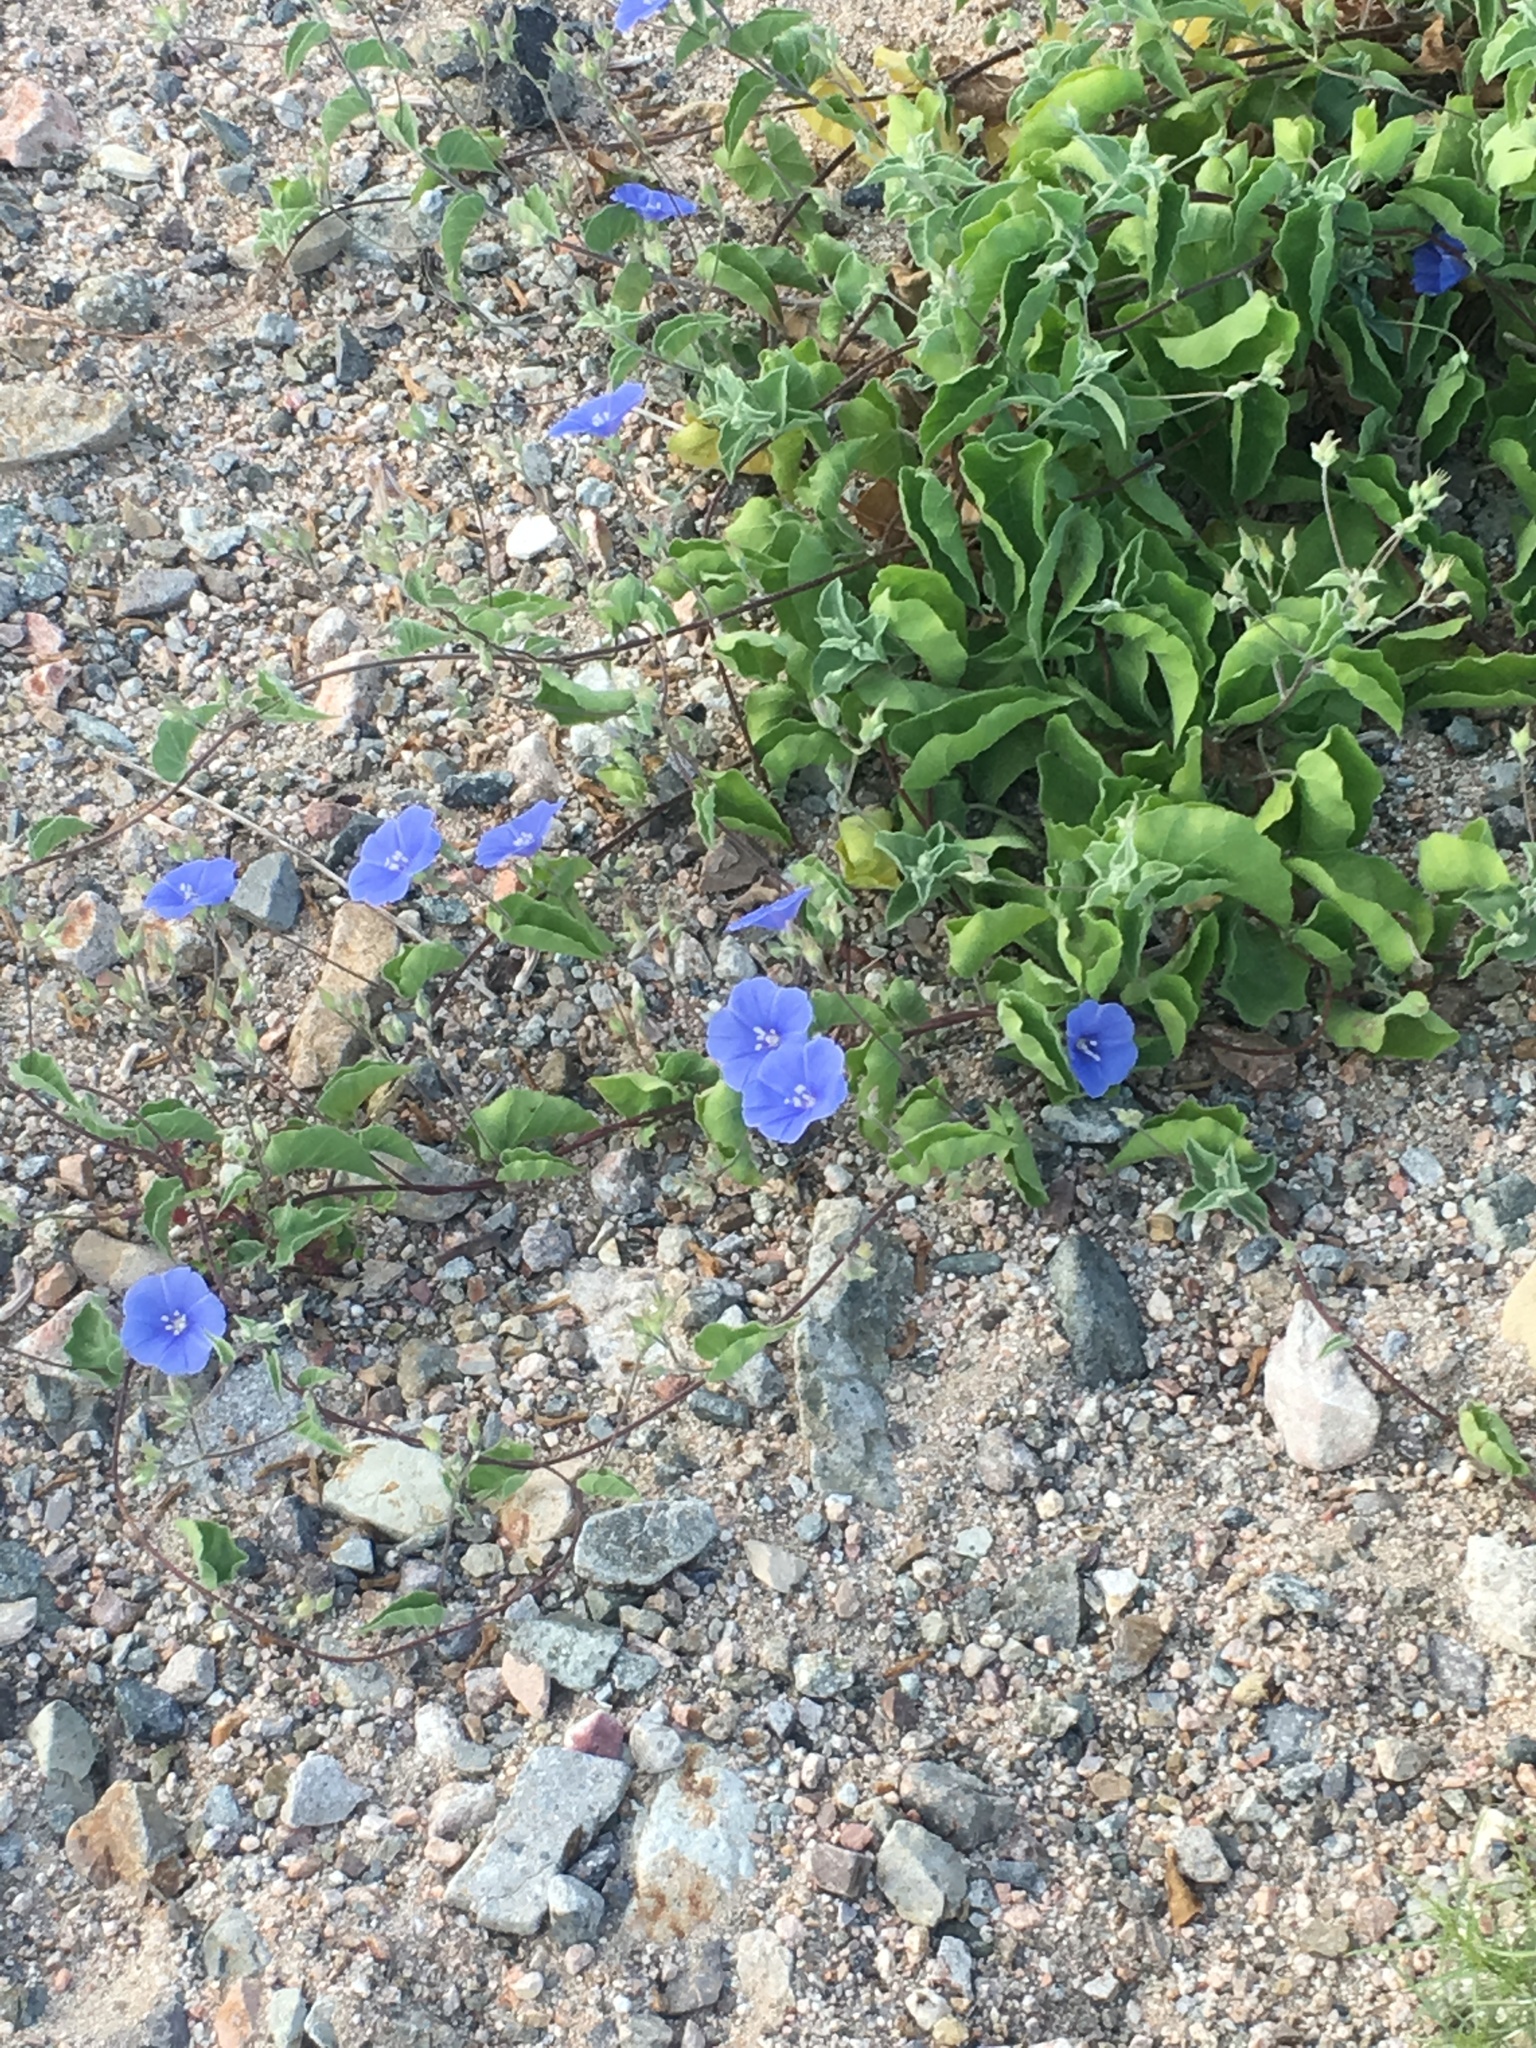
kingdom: Plantae
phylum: Tracheophyta
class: Magnoliopsida
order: Solanales
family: Convolvulaceae
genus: Jacquemontia
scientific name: Jacquemontia abutiloides
